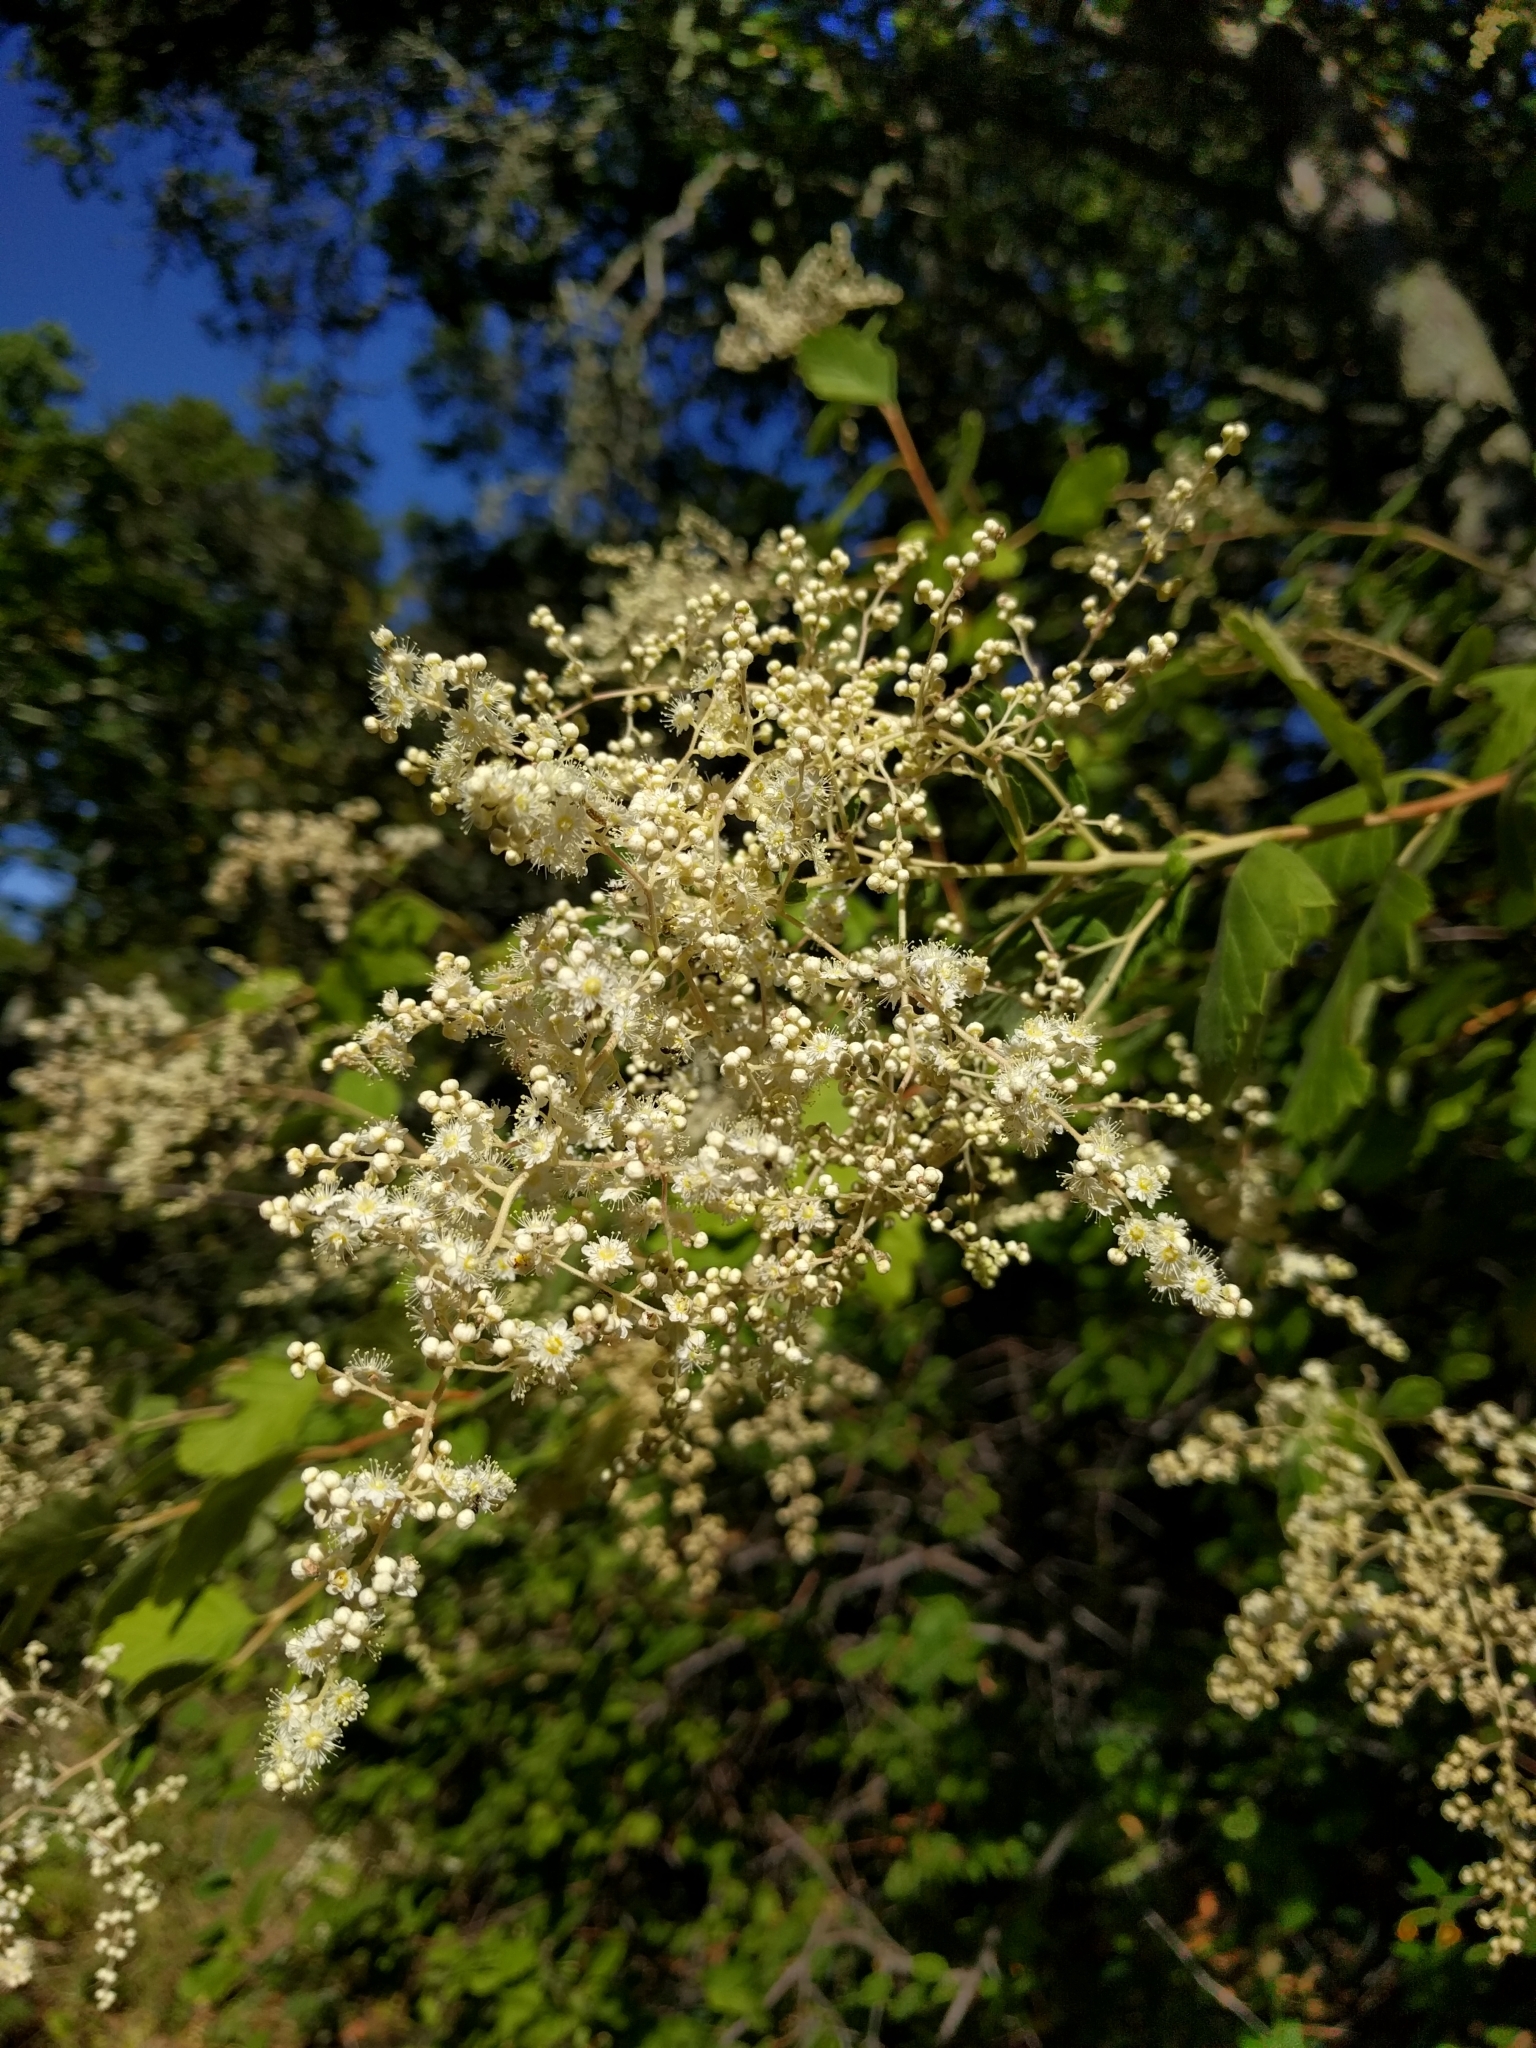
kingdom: Plantae
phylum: Tracheophyta
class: Magnoliopsida
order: Rosales
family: Rosaceae
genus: Holodiscus
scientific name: Holodiscus discolor
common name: Oceanspray
